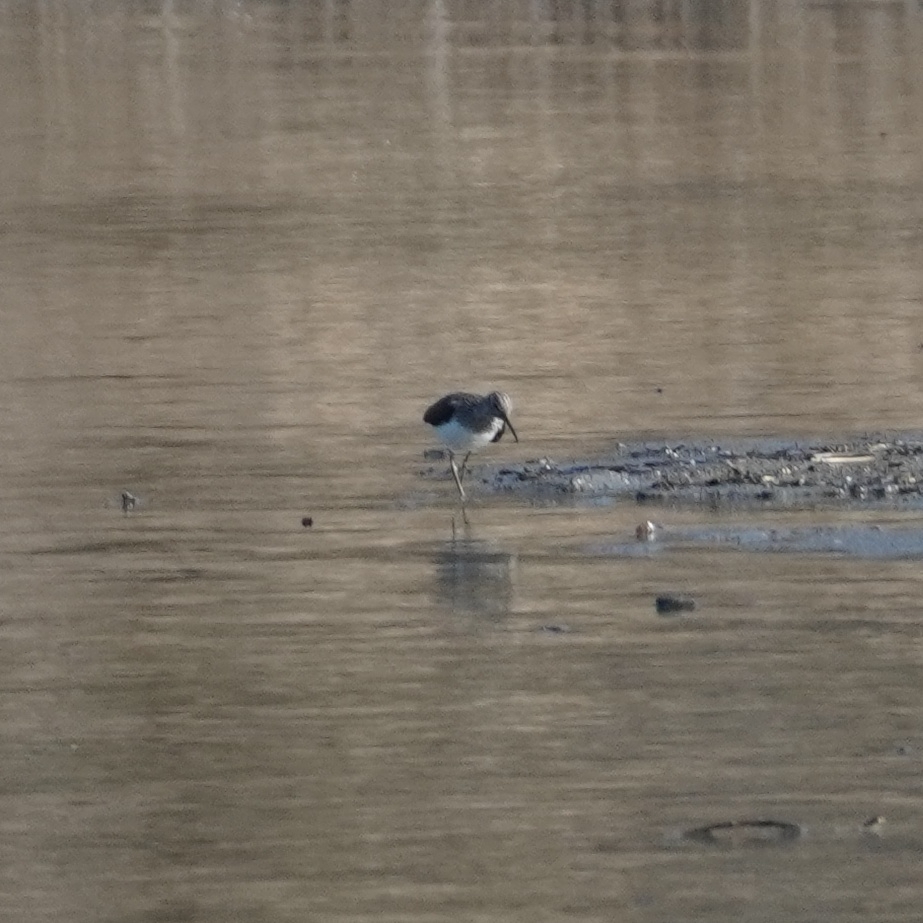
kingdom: Animalia
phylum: Chordata
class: Aves
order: Charadriiformes
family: Scolopacidae
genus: Tringa
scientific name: Tringa ochropus
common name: Green sandpiper
